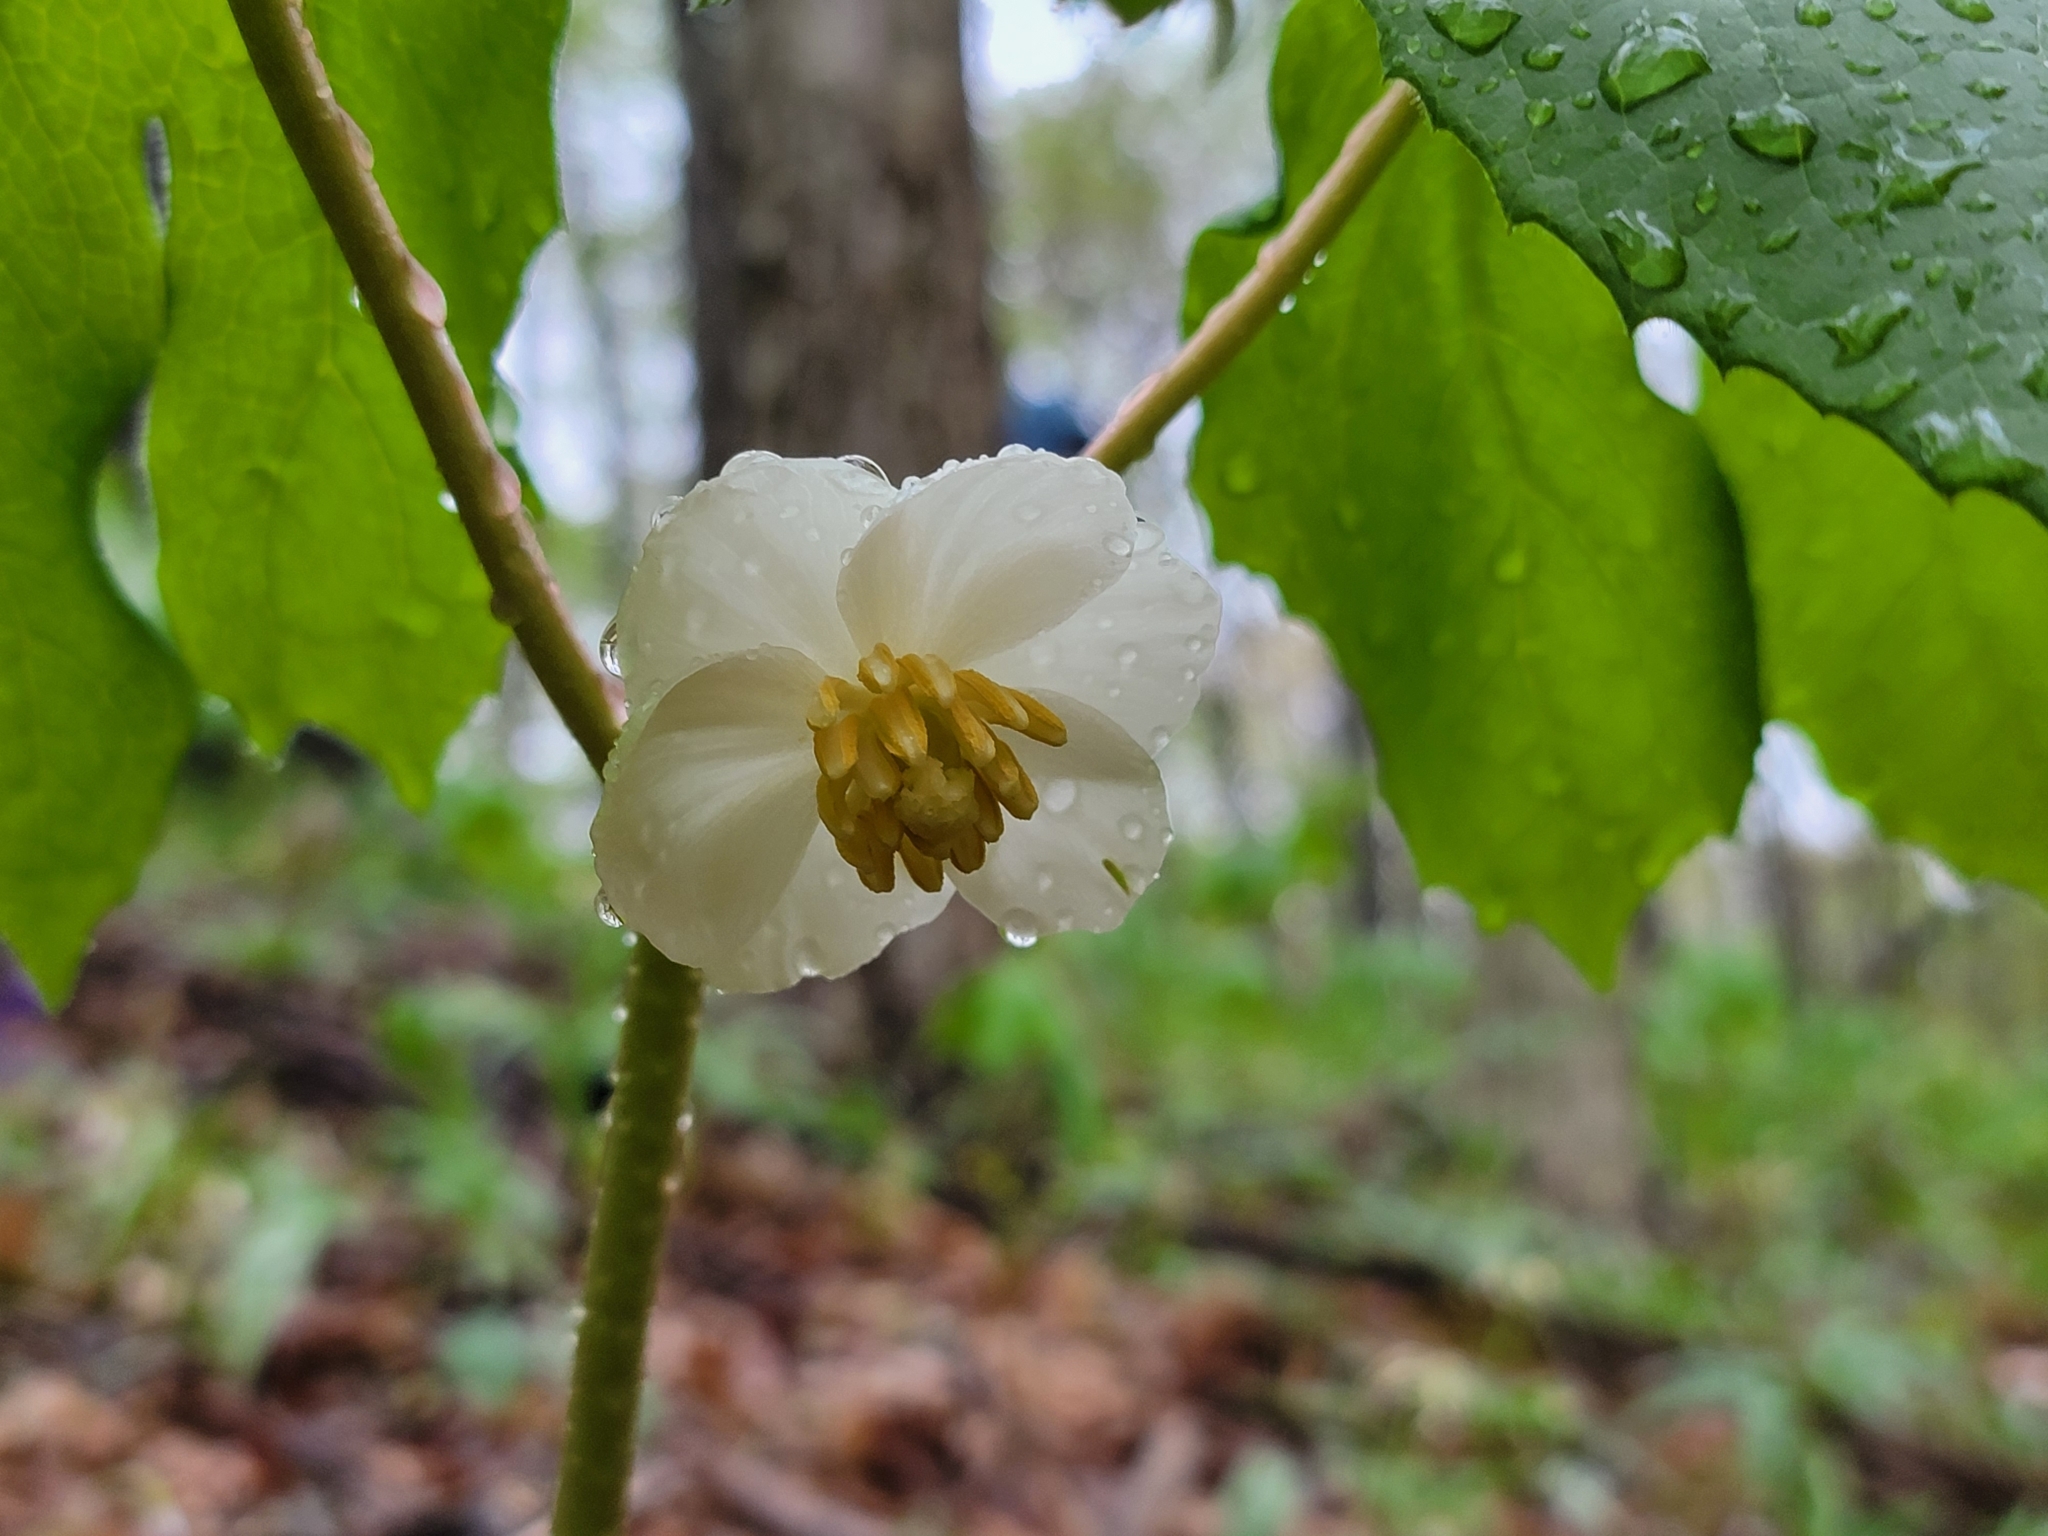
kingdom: Plantae
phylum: Tracheophyta
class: Magnoliopsida
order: Ranunculales
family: Berberidaceae
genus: Podophyllum
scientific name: Podophyllum peltatum
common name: Wild mandrake
